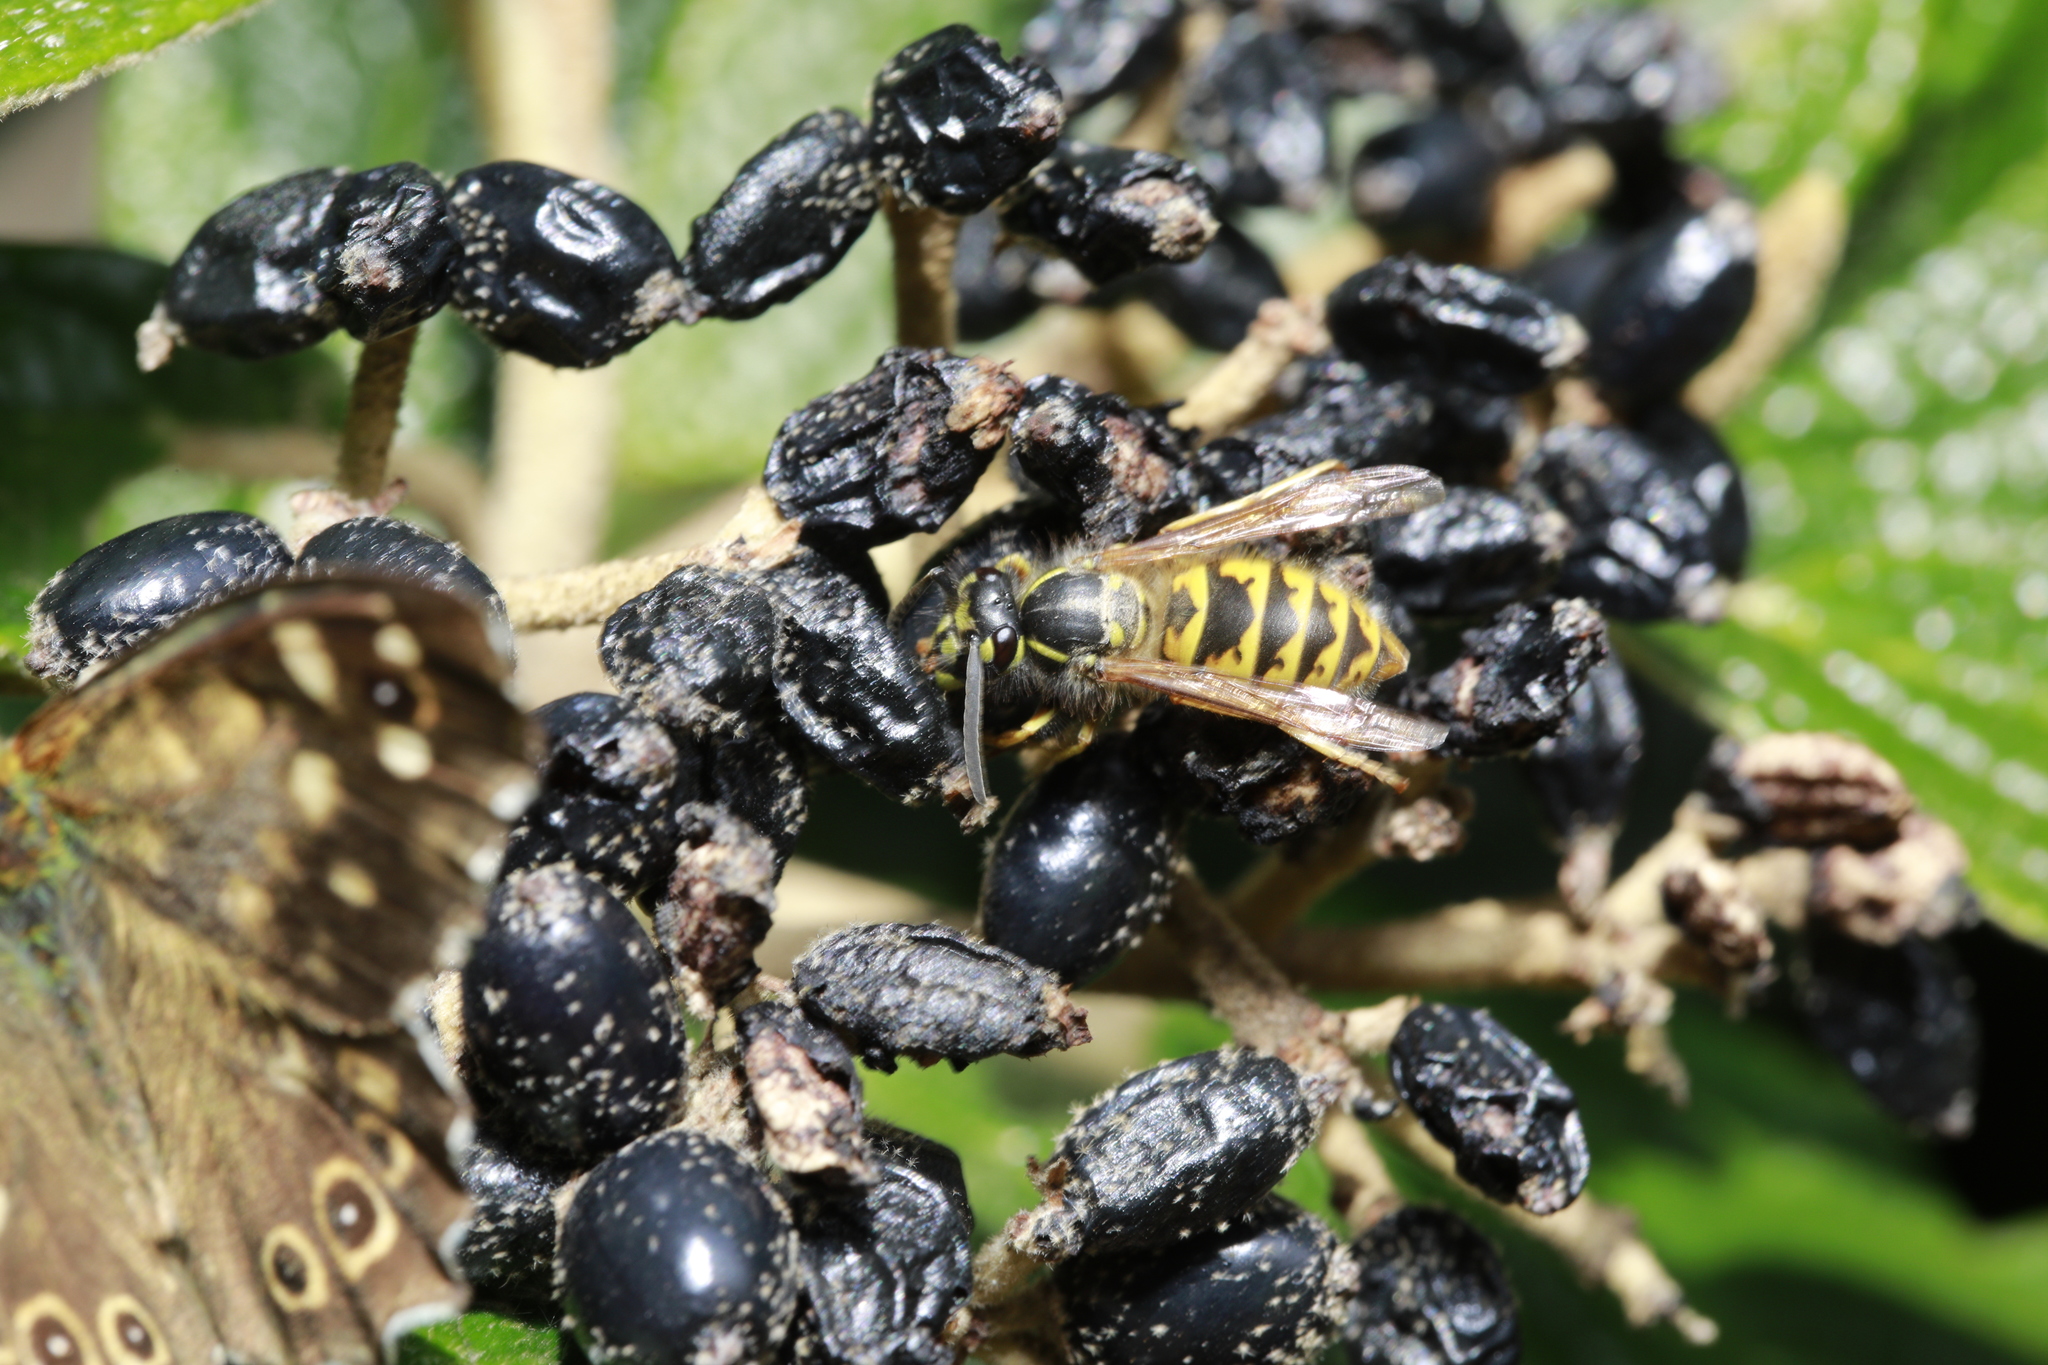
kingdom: Animalia
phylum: Arthropoda
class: Insecta
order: Hymenoptera
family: Vespidae
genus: Vespula
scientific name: Vespula vulgaris
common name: Common wasp
